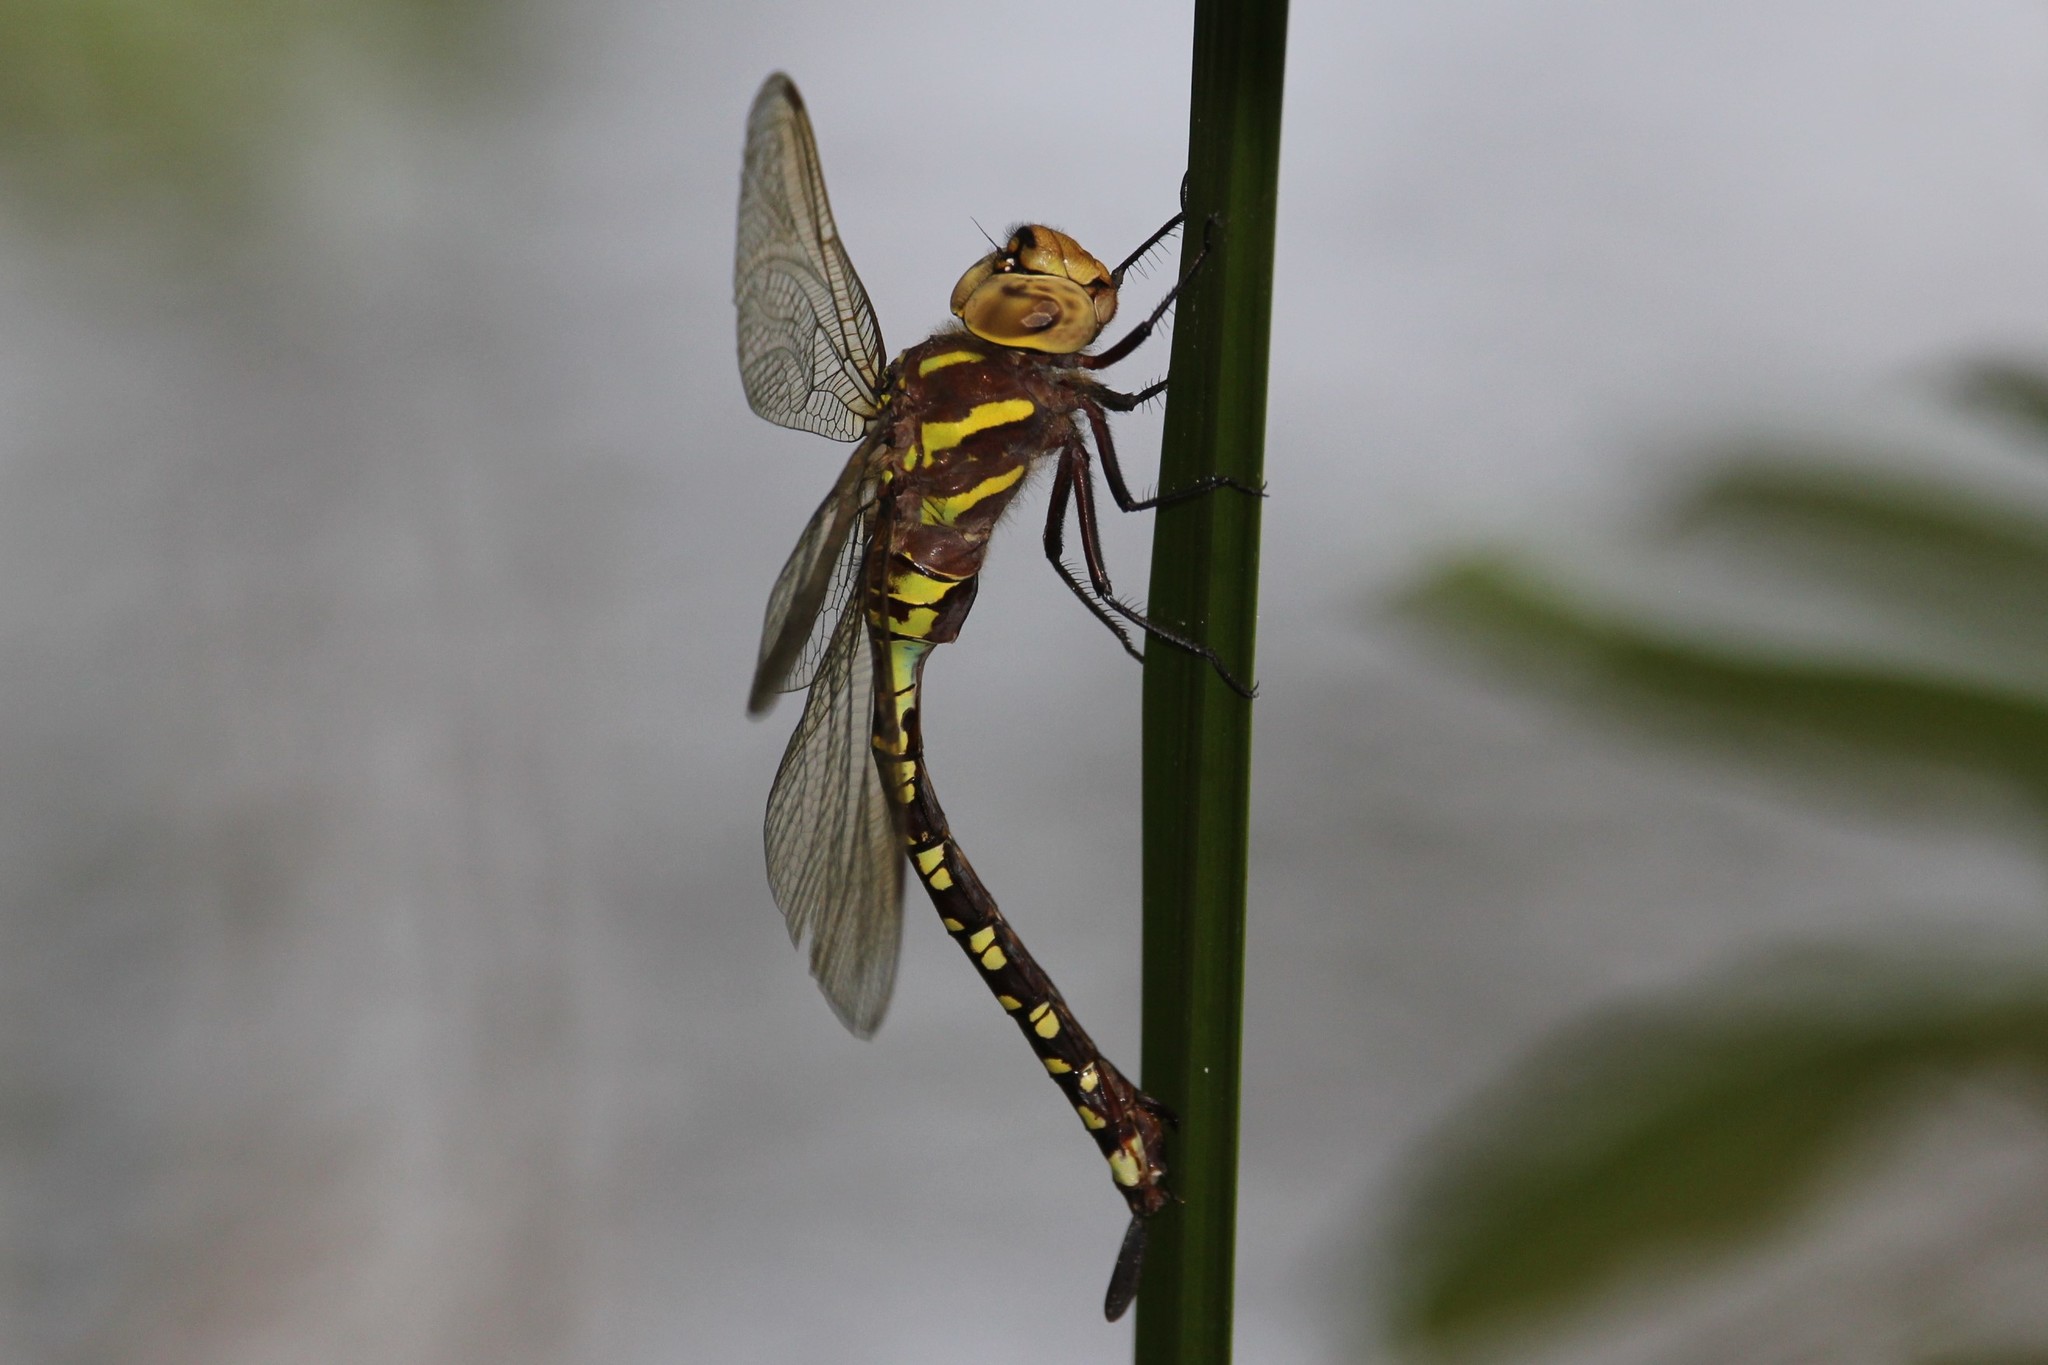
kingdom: Animalia
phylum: Arthropoda
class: Insecta
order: Odonata
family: Aeshnidae
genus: Aeshna
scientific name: Aeshna constricta
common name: Lance-tipped darner
